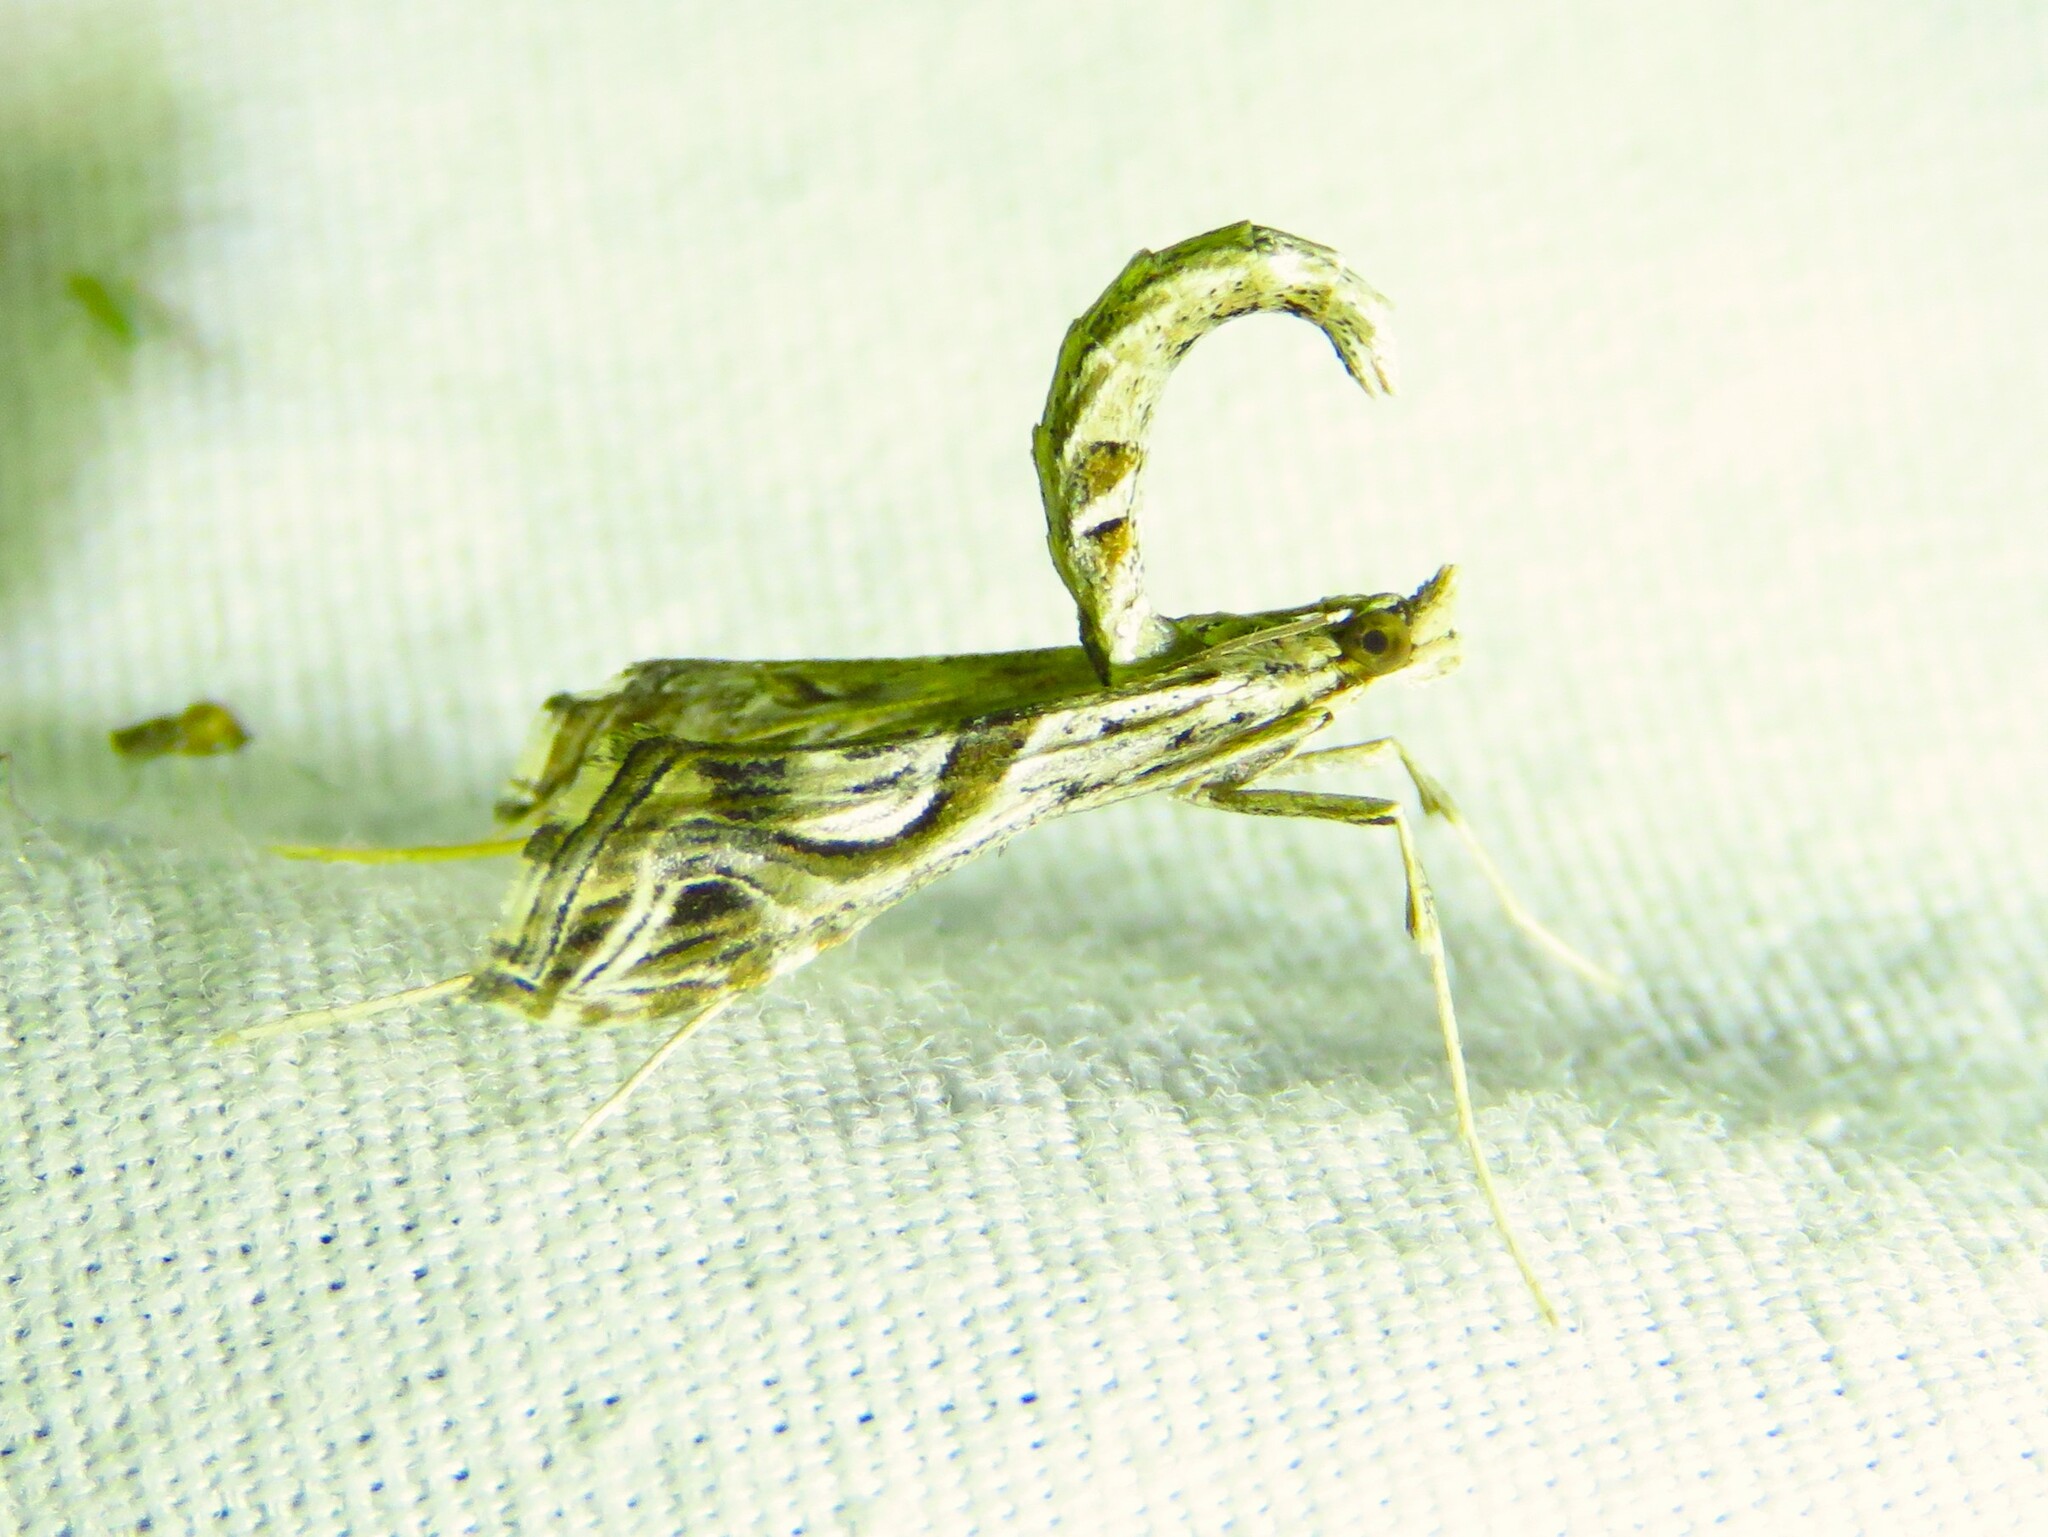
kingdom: Animalia
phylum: Arthropoda
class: Insecta
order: Lepidoptera
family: Crambidae
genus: Lineodes
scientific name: Lineodes integra
